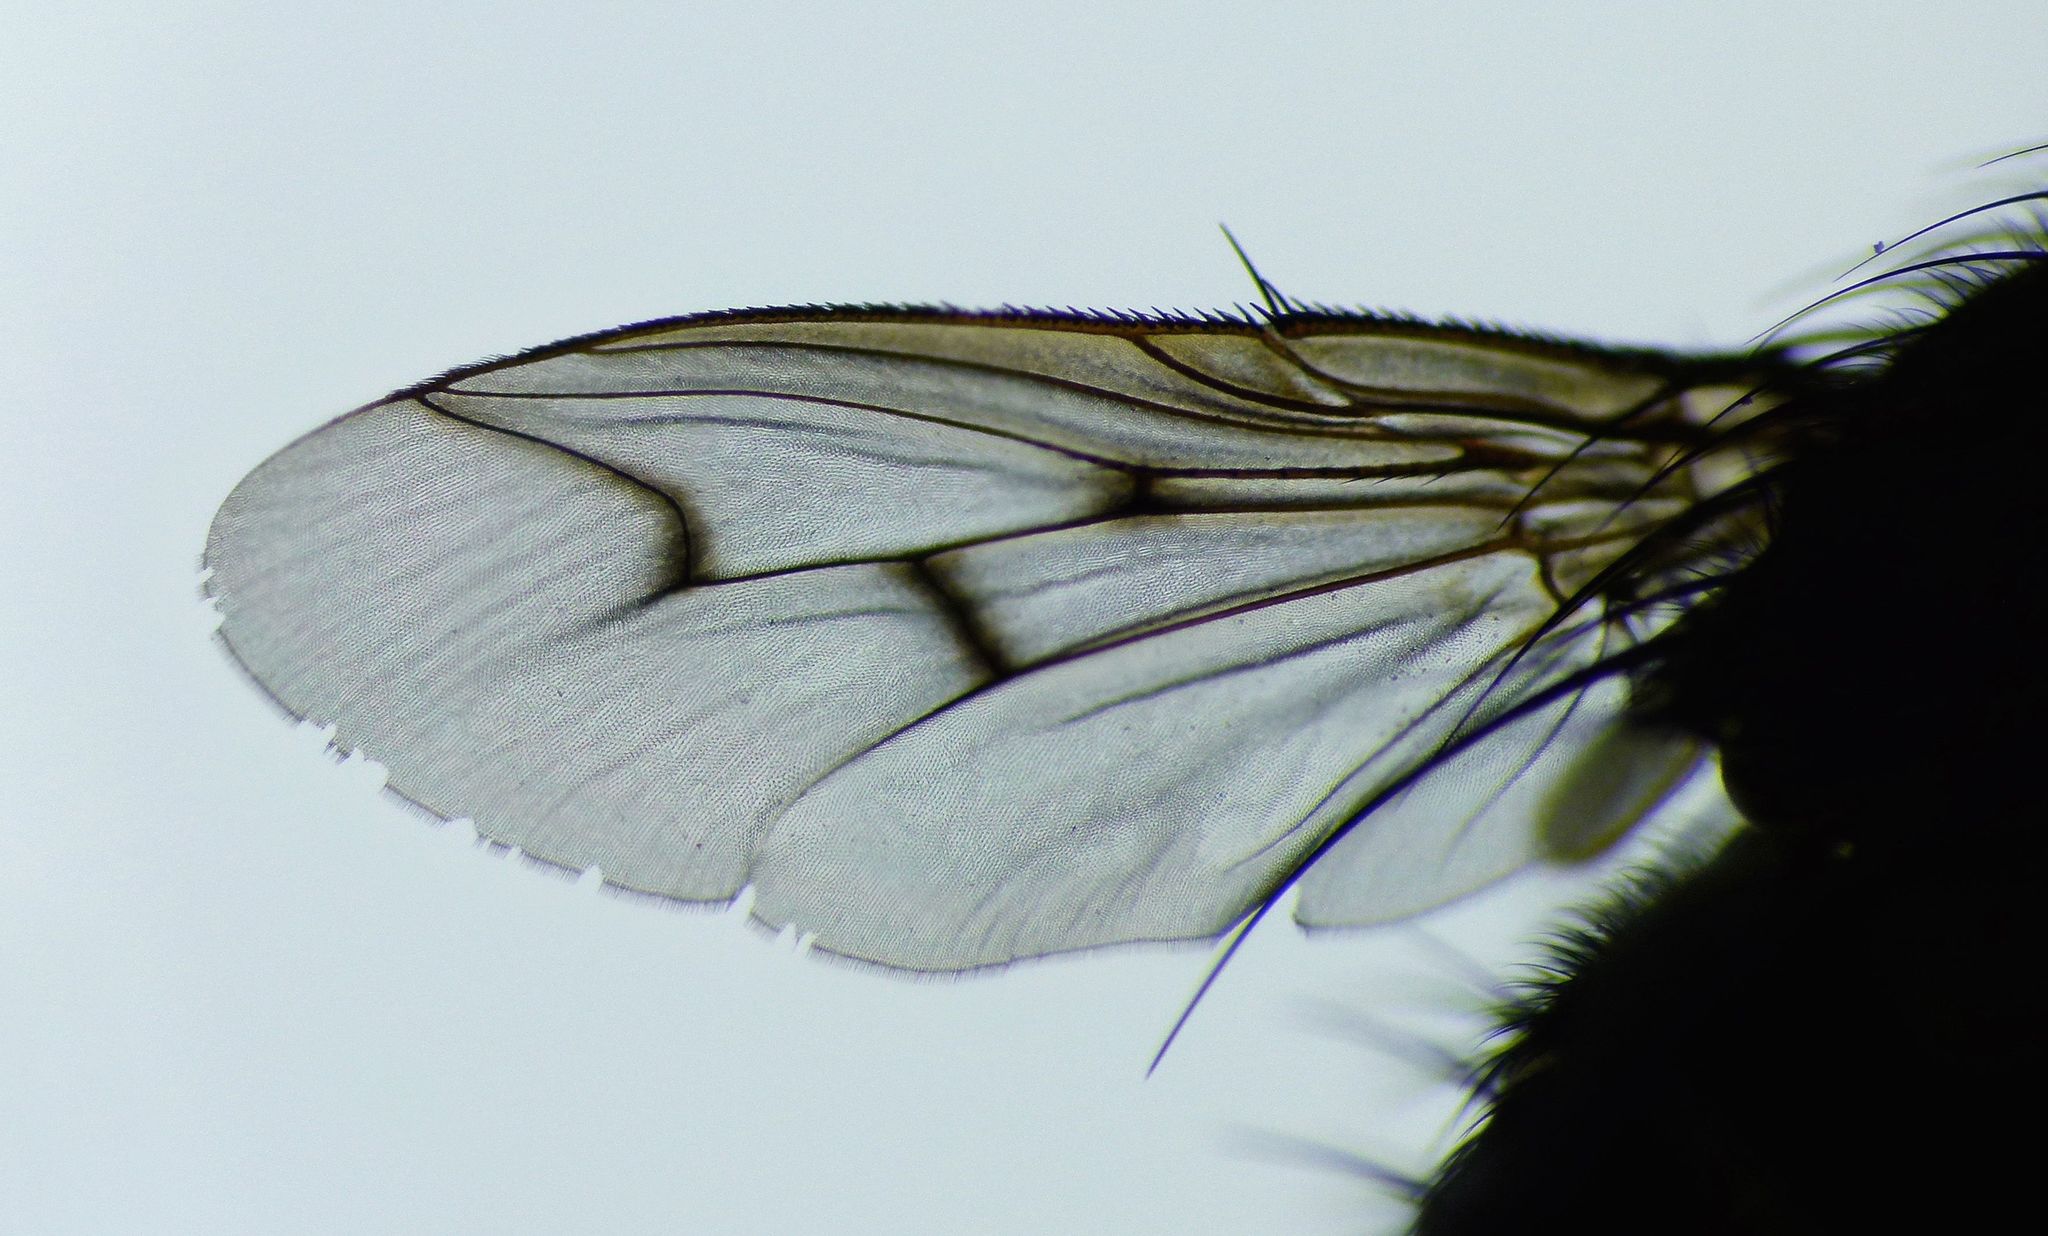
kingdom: Animalia
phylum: Arthropoda
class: Insecta
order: Diptera
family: Tachinidae
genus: Calcager
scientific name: Calcager apertum
